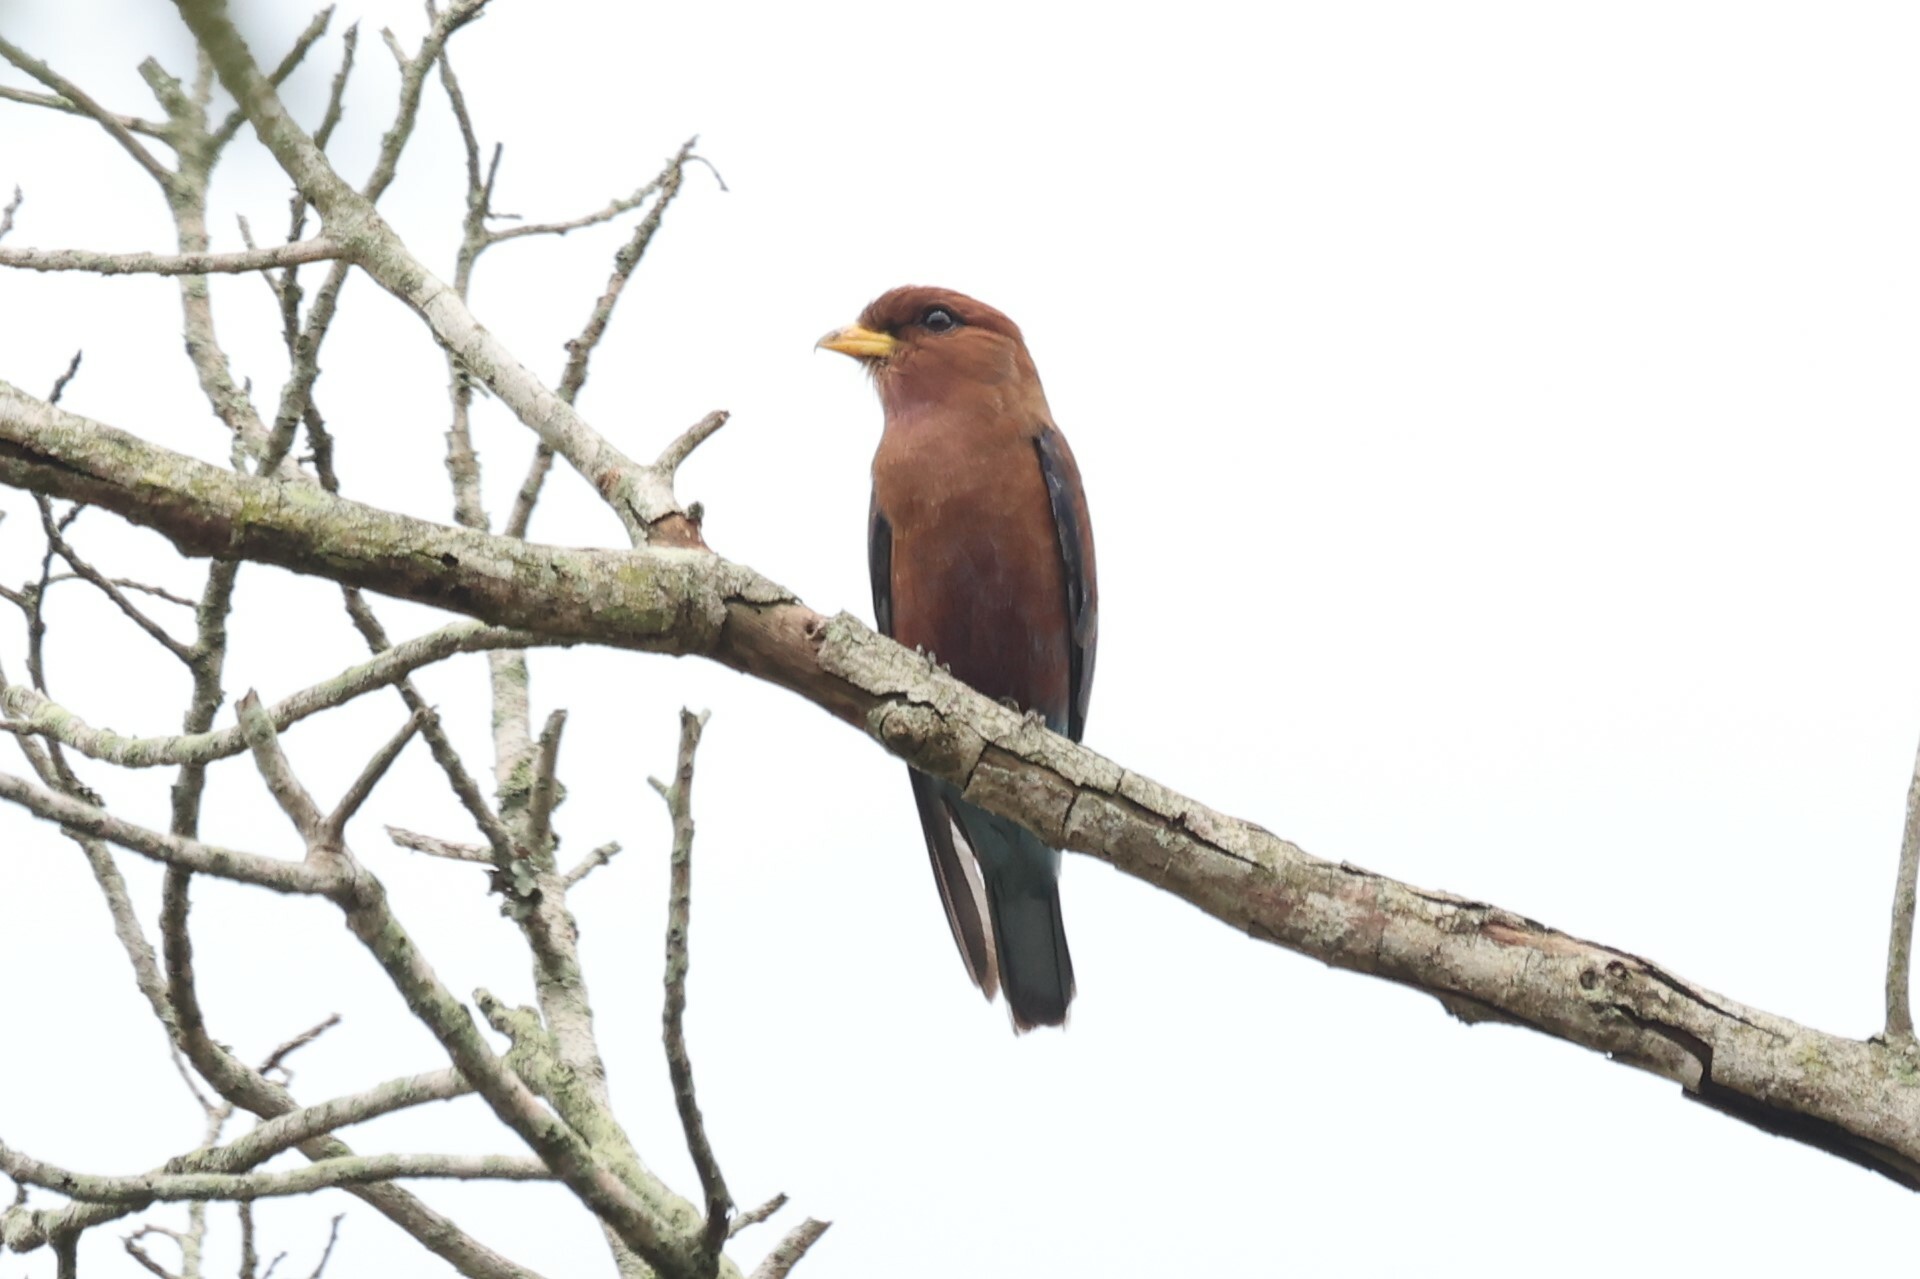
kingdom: Animalia
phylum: Chordata
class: Aves
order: Coraciiformes
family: Coraciidae
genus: Eurystomus
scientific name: Eurystomus glaucurus
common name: Broad-billed roller
